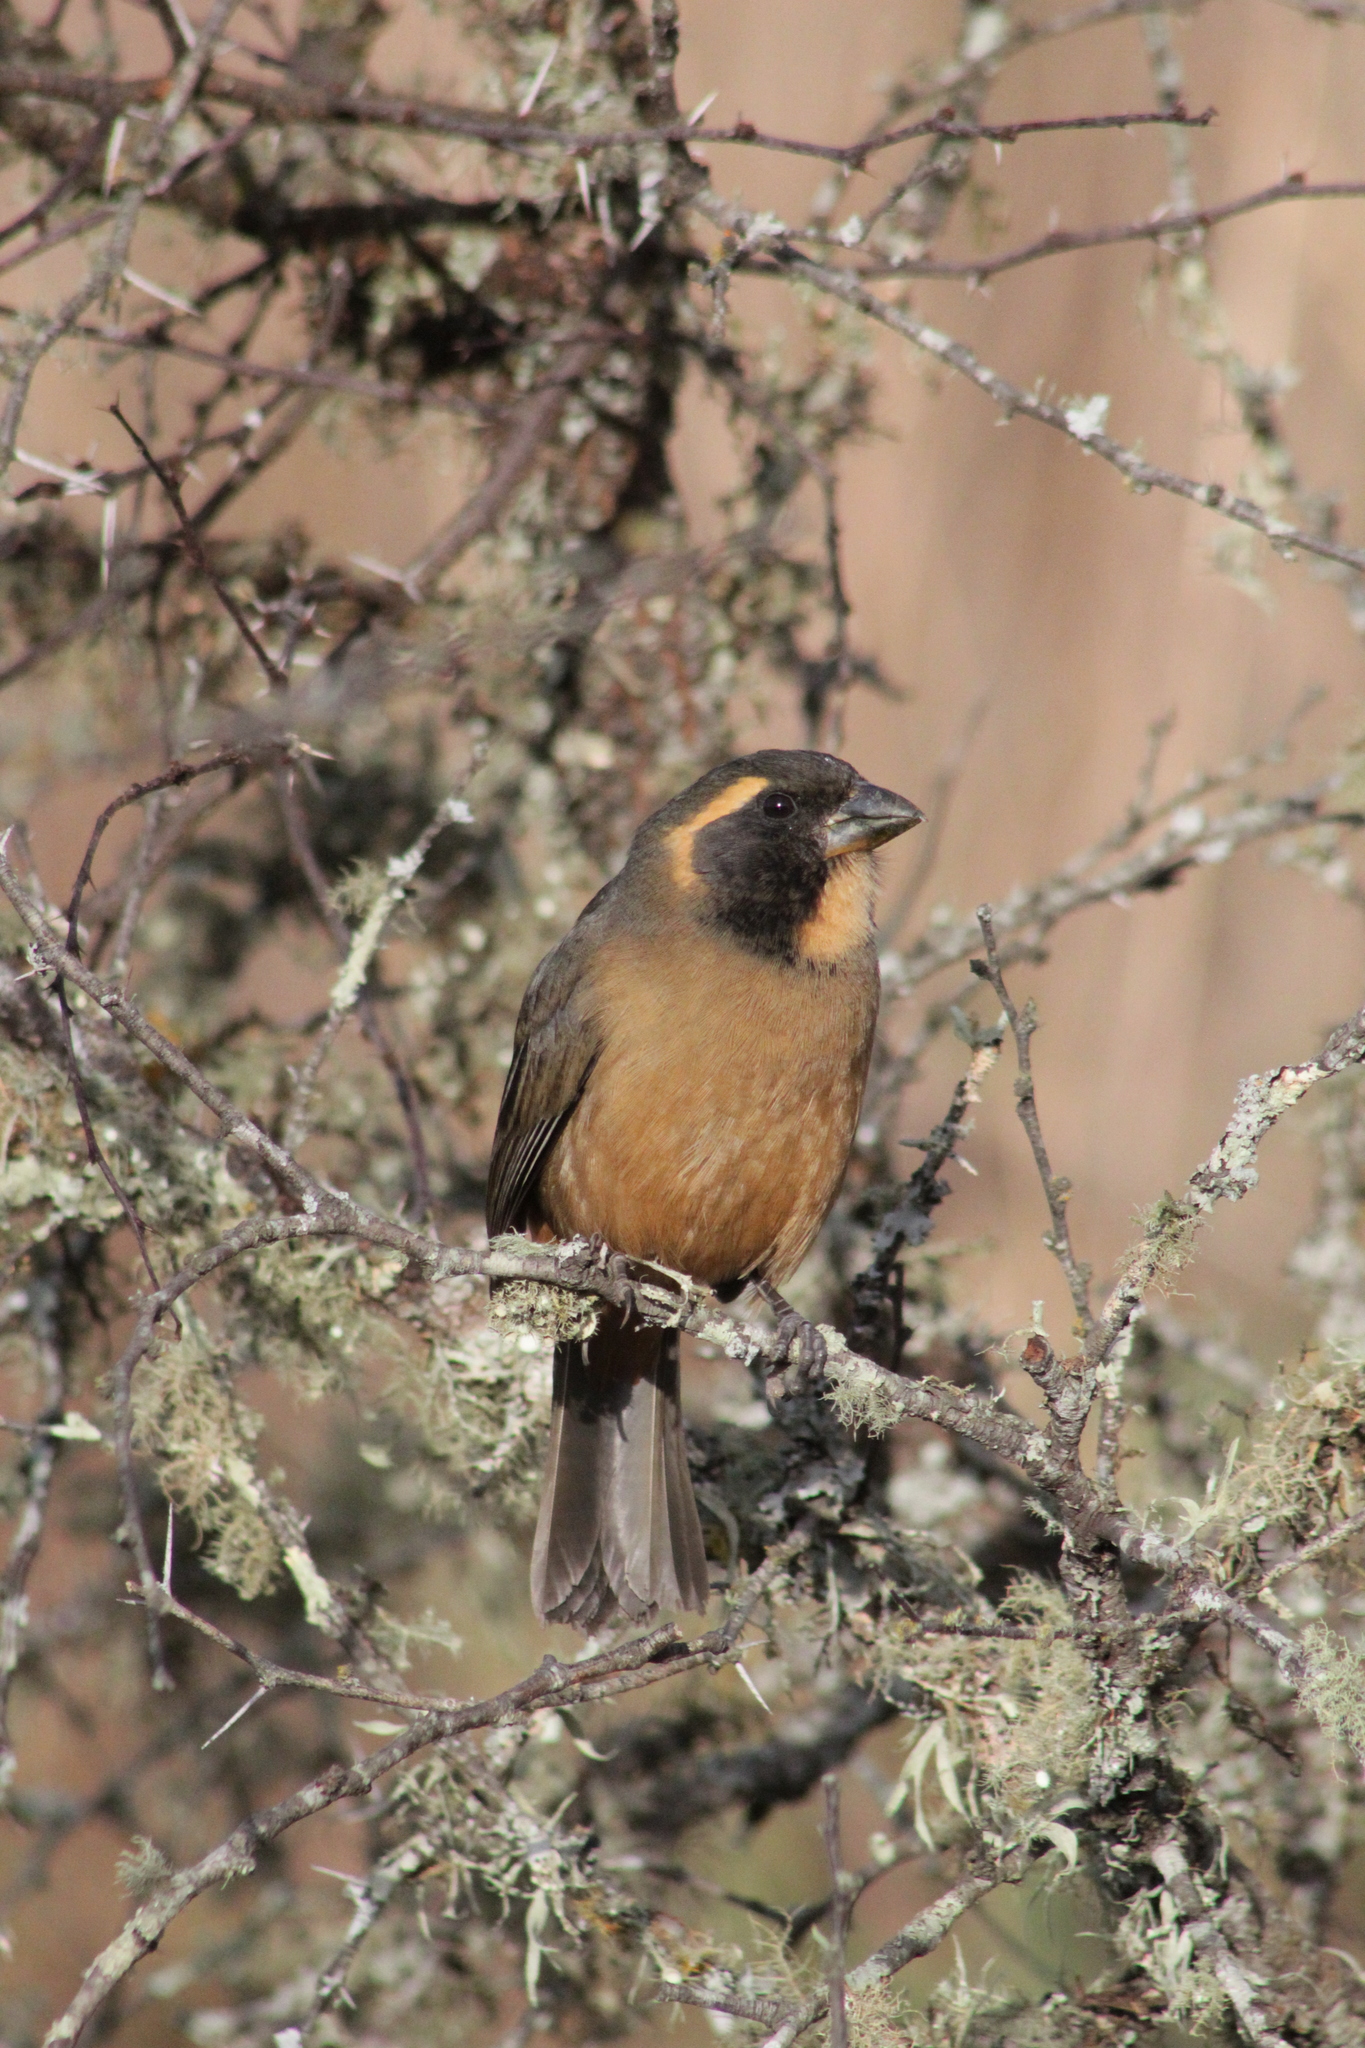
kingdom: Animalia
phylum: Chordata
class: Aves
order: Passeriformes
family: Thraupidae
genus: Saltator
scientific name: Saltator aurantiirostris
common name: Golden-billed saltator
